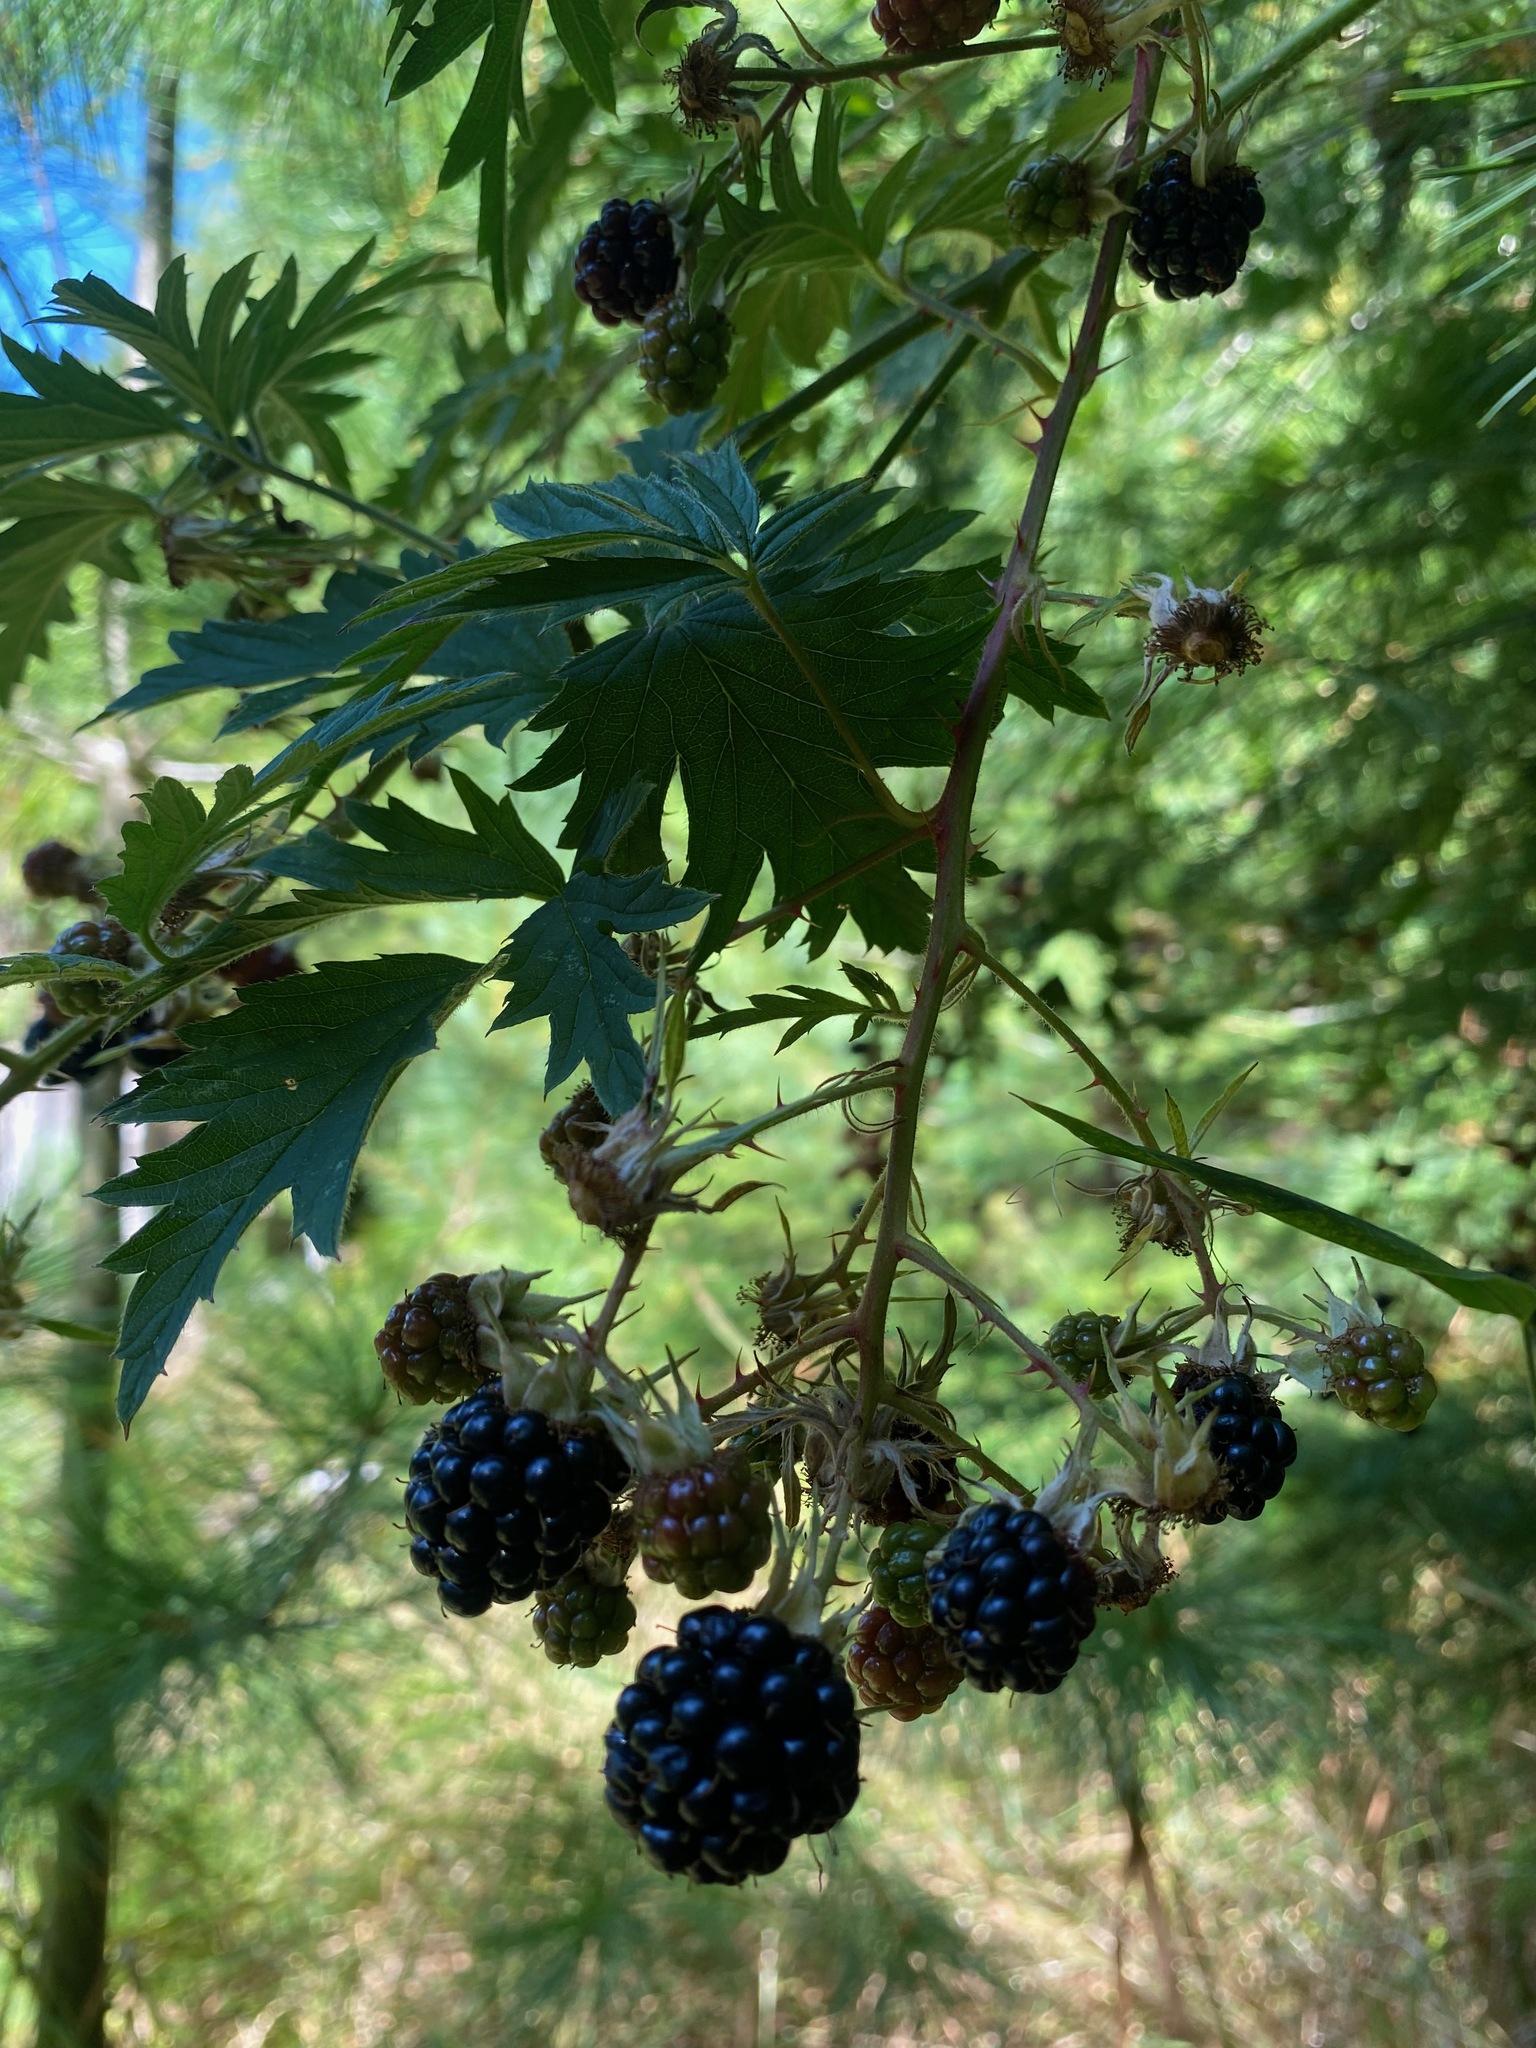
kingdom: Plantae
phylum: Tracheophyta
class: Magnoliopsida
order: Rosales
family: Rosaceae
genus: Rubus
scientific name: Rubus laciniatus
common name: Evergreen blackberry
